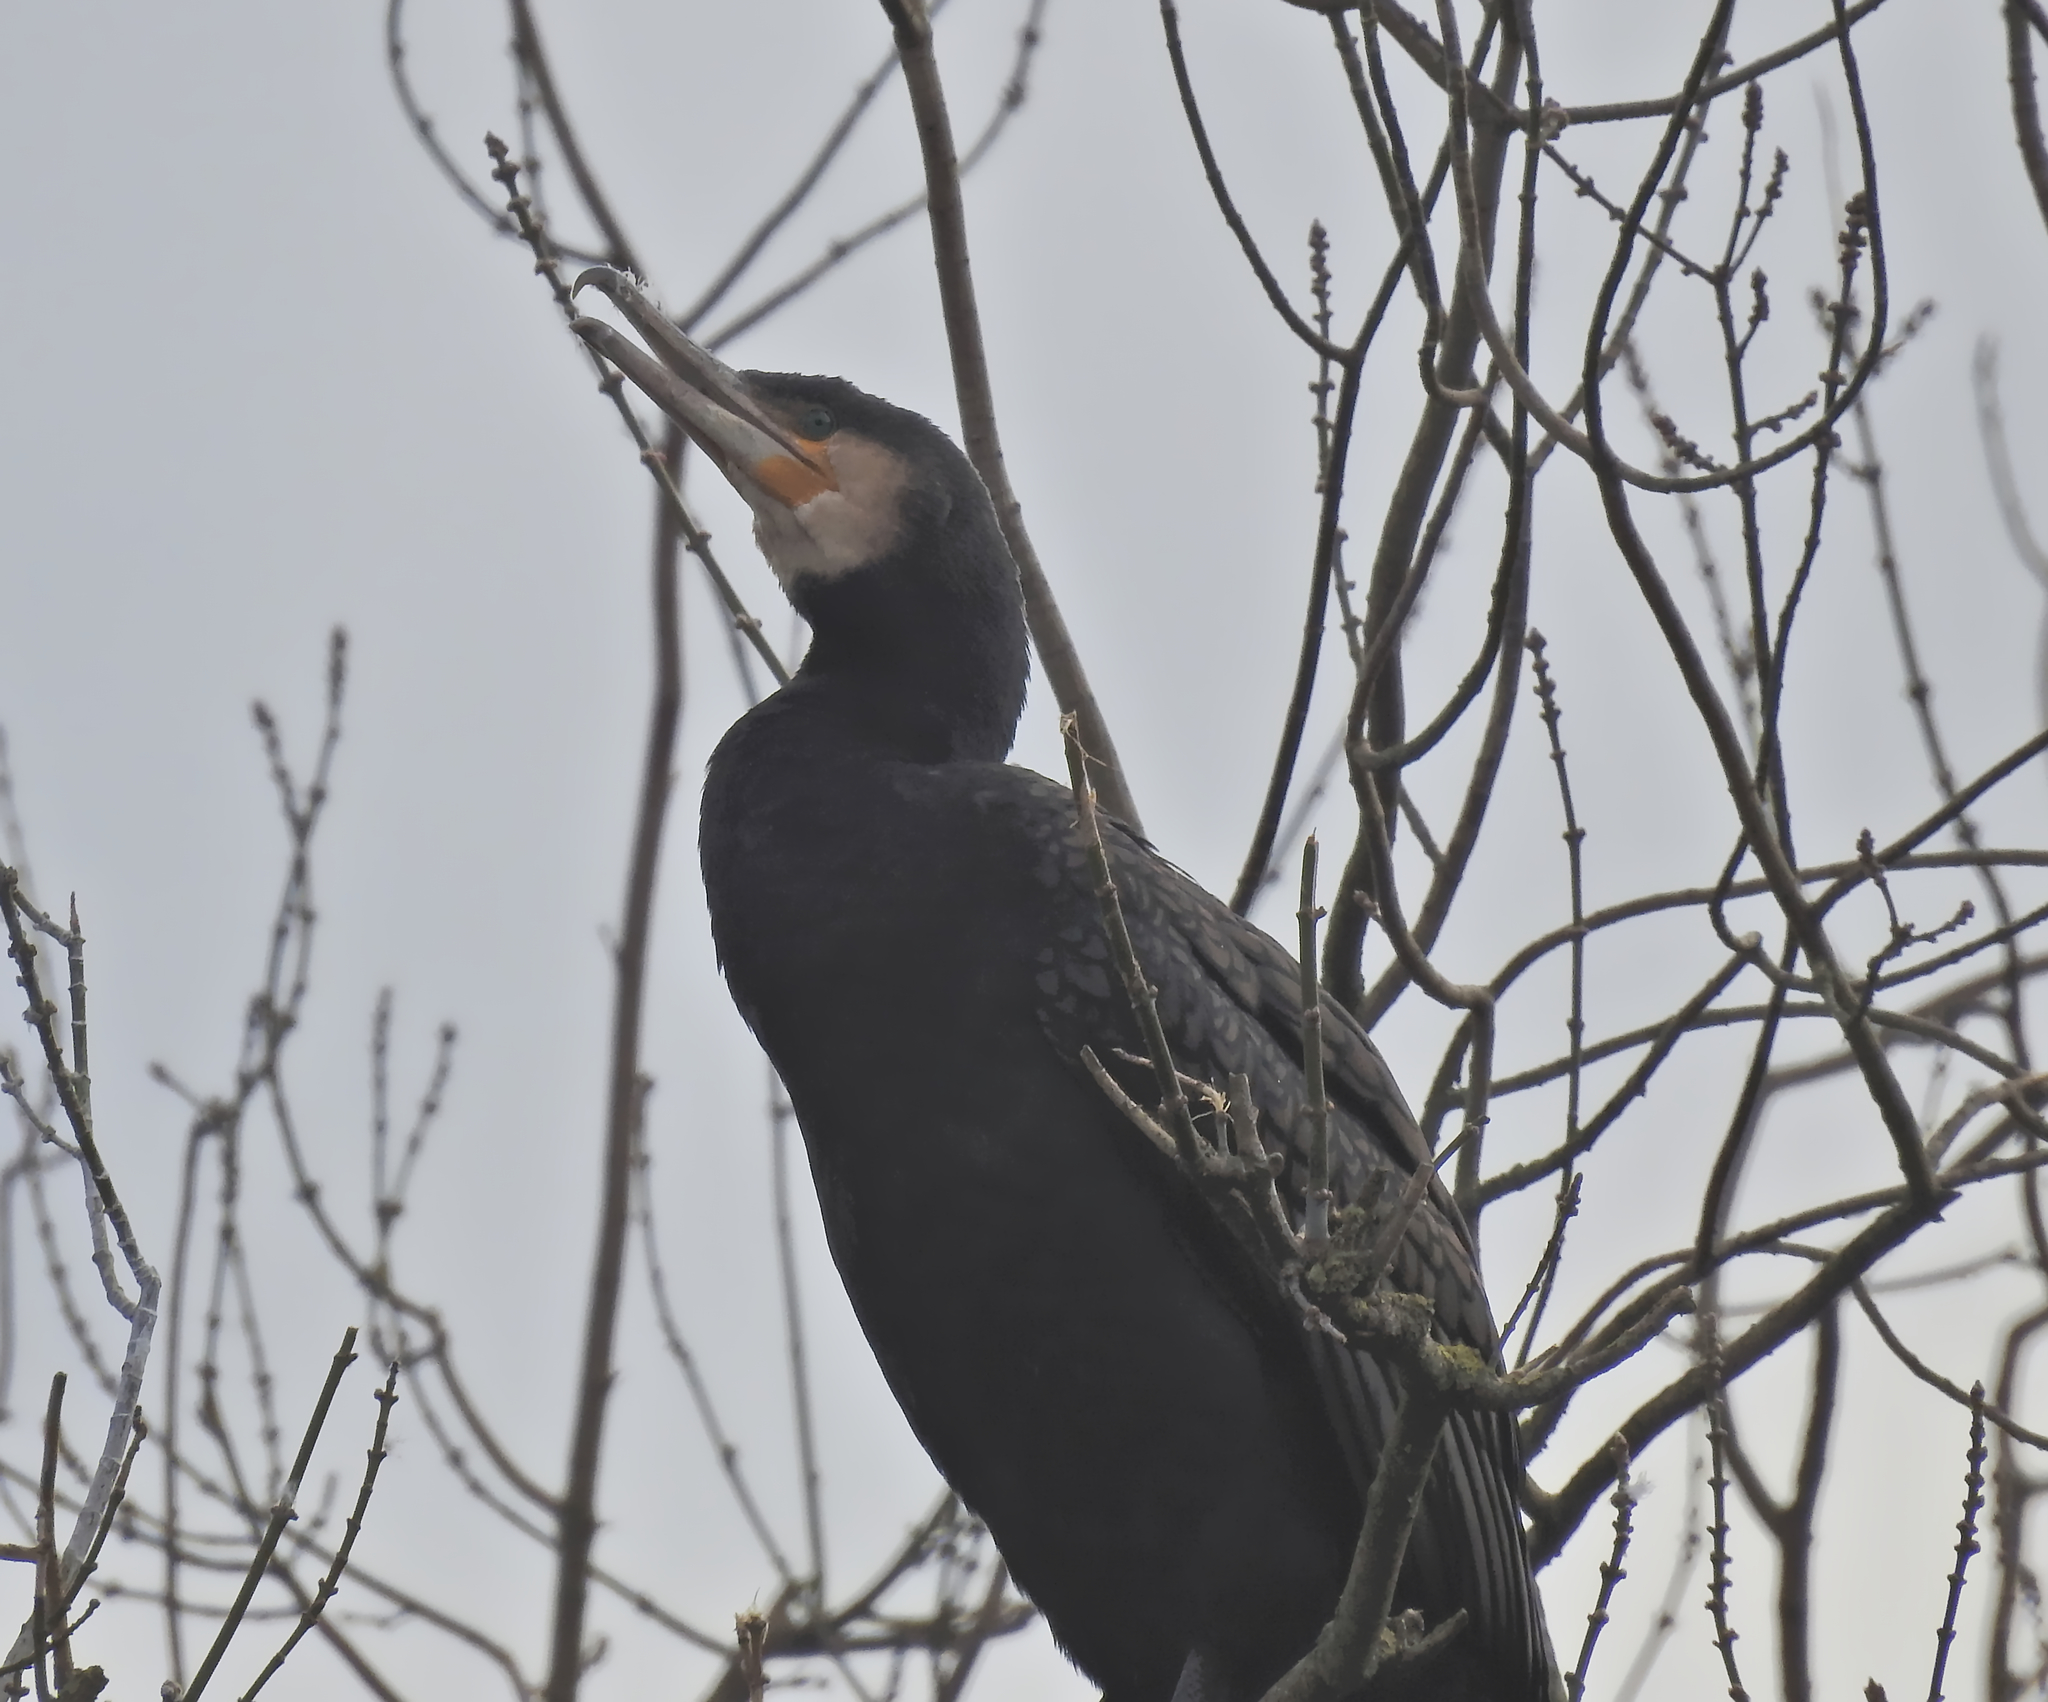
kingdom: Animalia
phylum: Chordata
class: Aves
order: Suliformes
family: Phalacrocoracidae
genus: Phalacrocorax
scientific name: Phalacrocorax carbo
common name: Great cormorant
